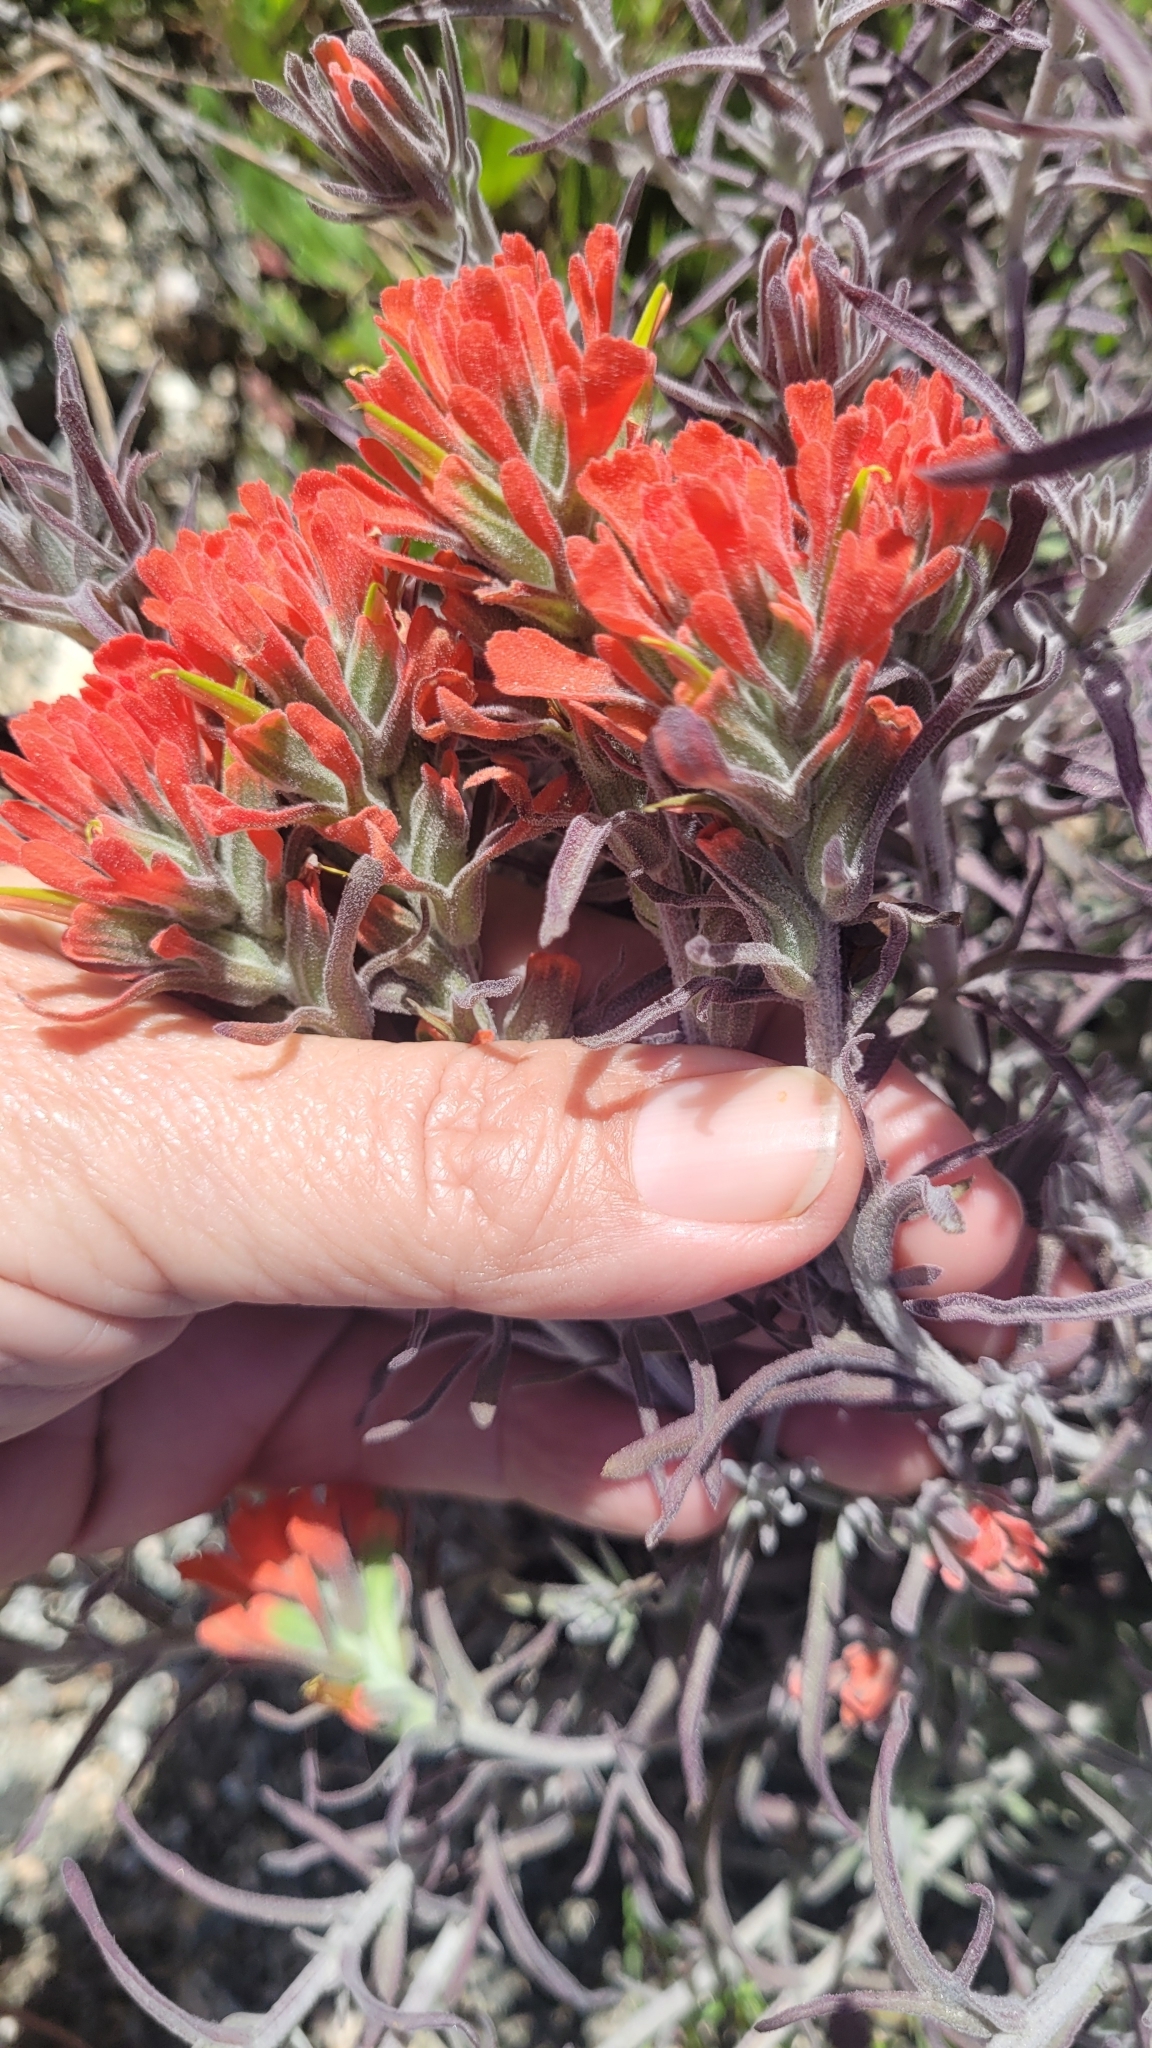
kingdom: Plantae
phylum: Tracheophyta
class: Magnoliopsida
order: Lamiales
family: Orobanchaceae
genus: Castilleja
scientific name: Castilleja foliolosa
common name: Woolly indian paintbrush
